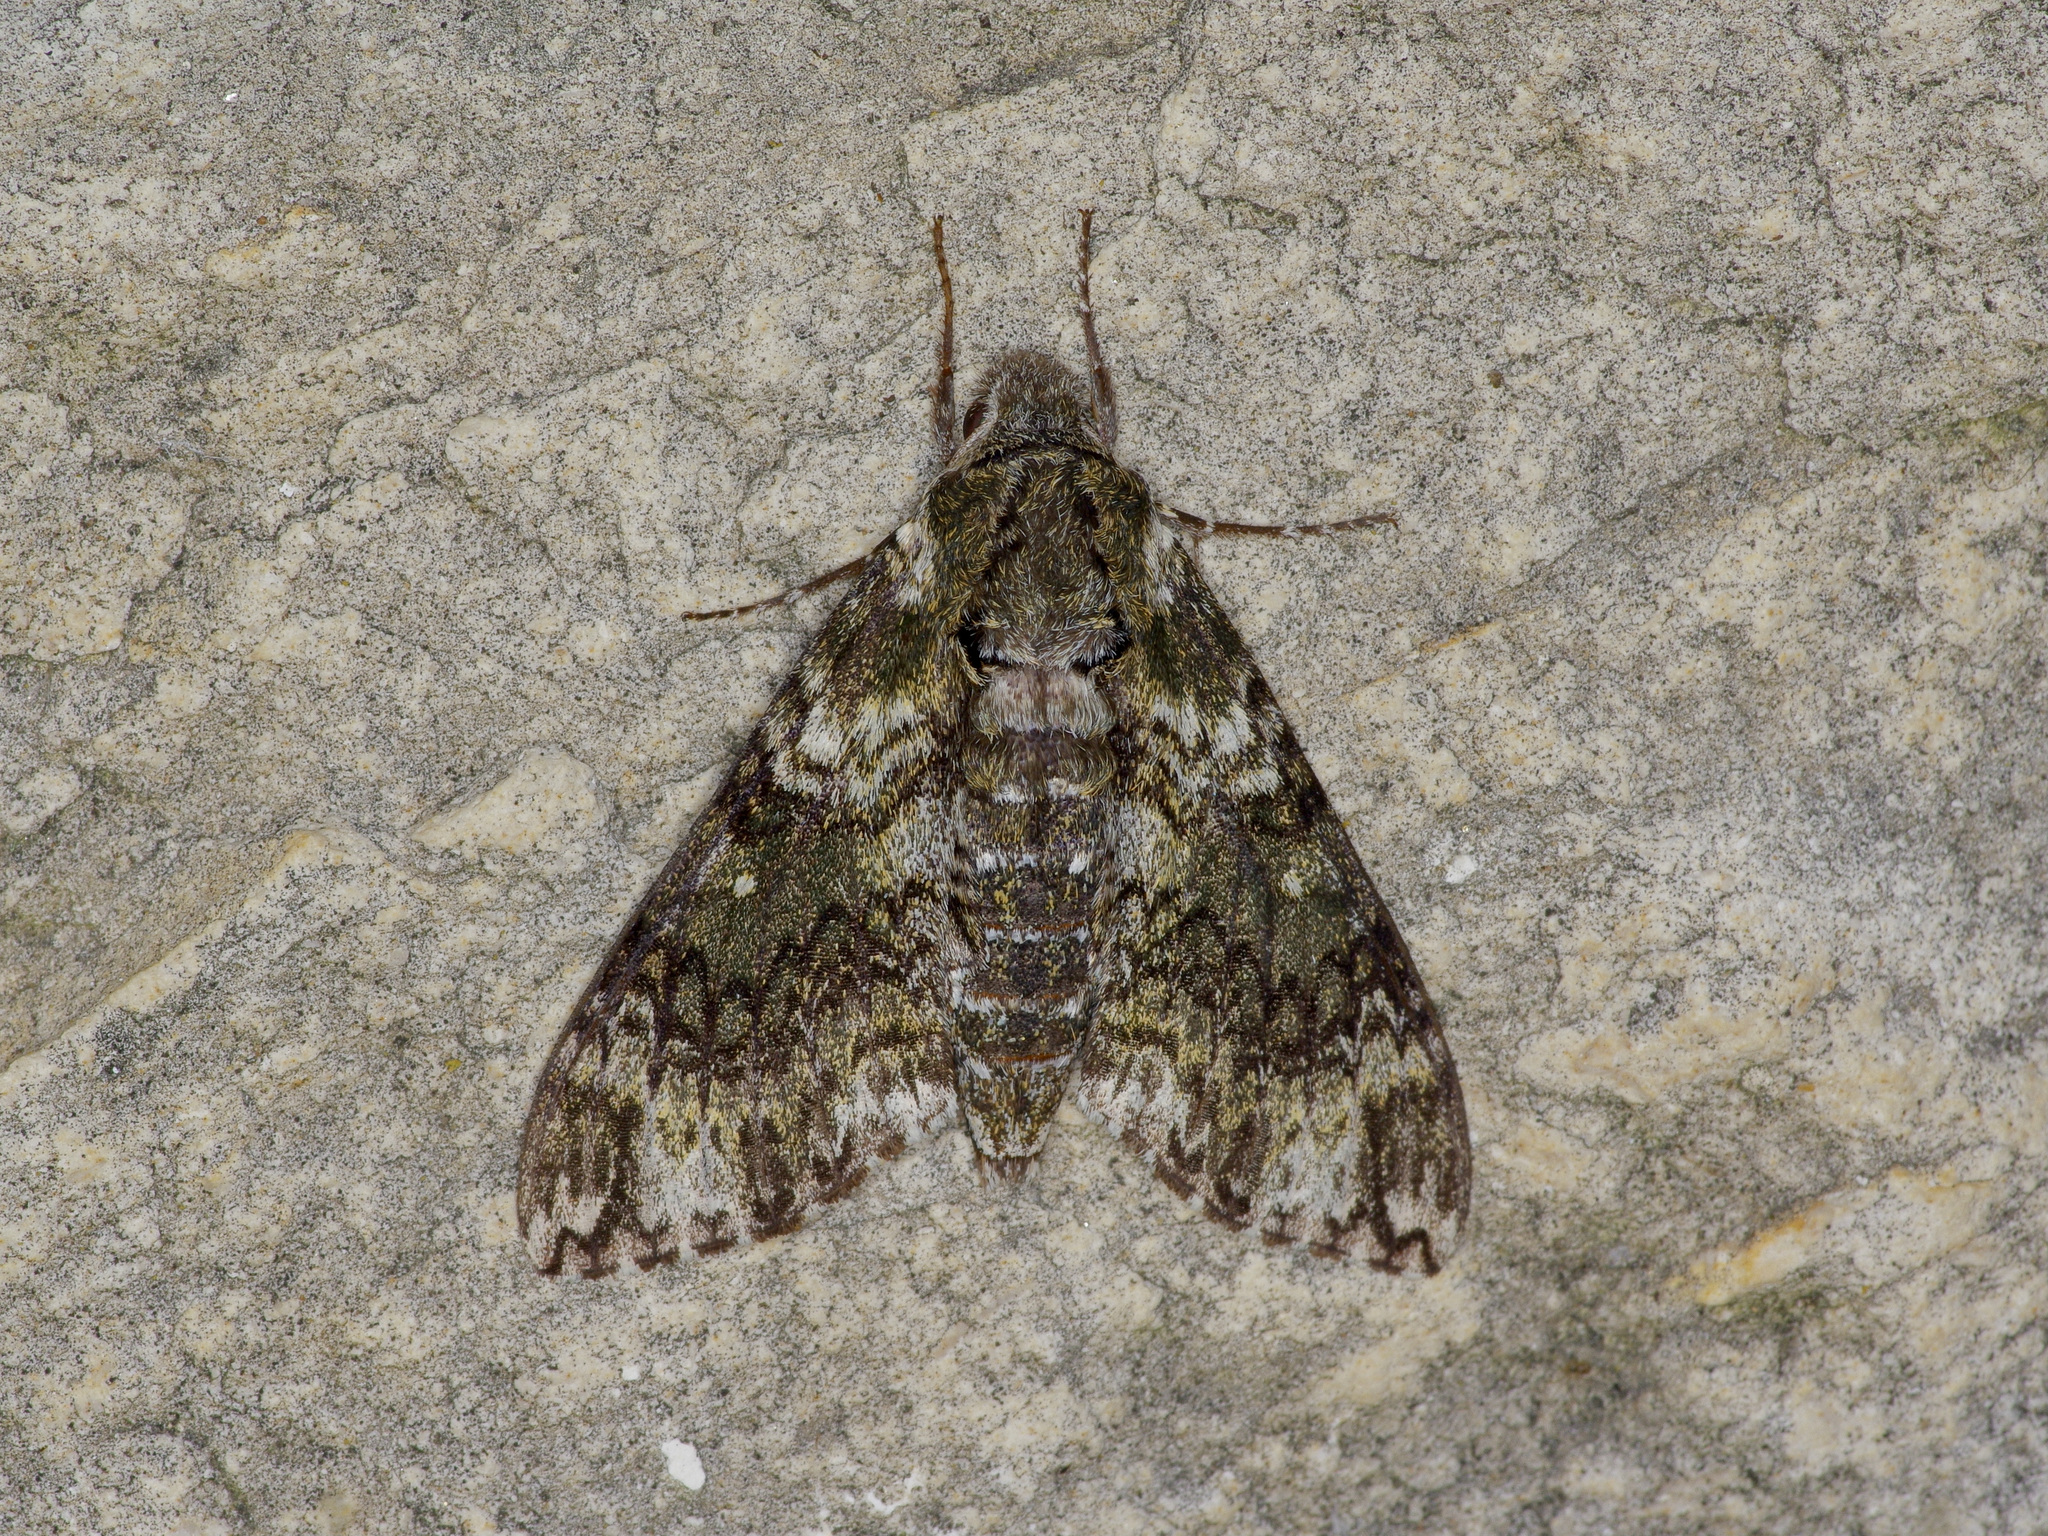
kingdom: Animalia
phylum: Arthropoda
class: Insecta
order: Lepidoptera
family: Sphingidae
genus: Dolba
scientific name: Dolba hyloeus
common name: Pawpaw sphinx
